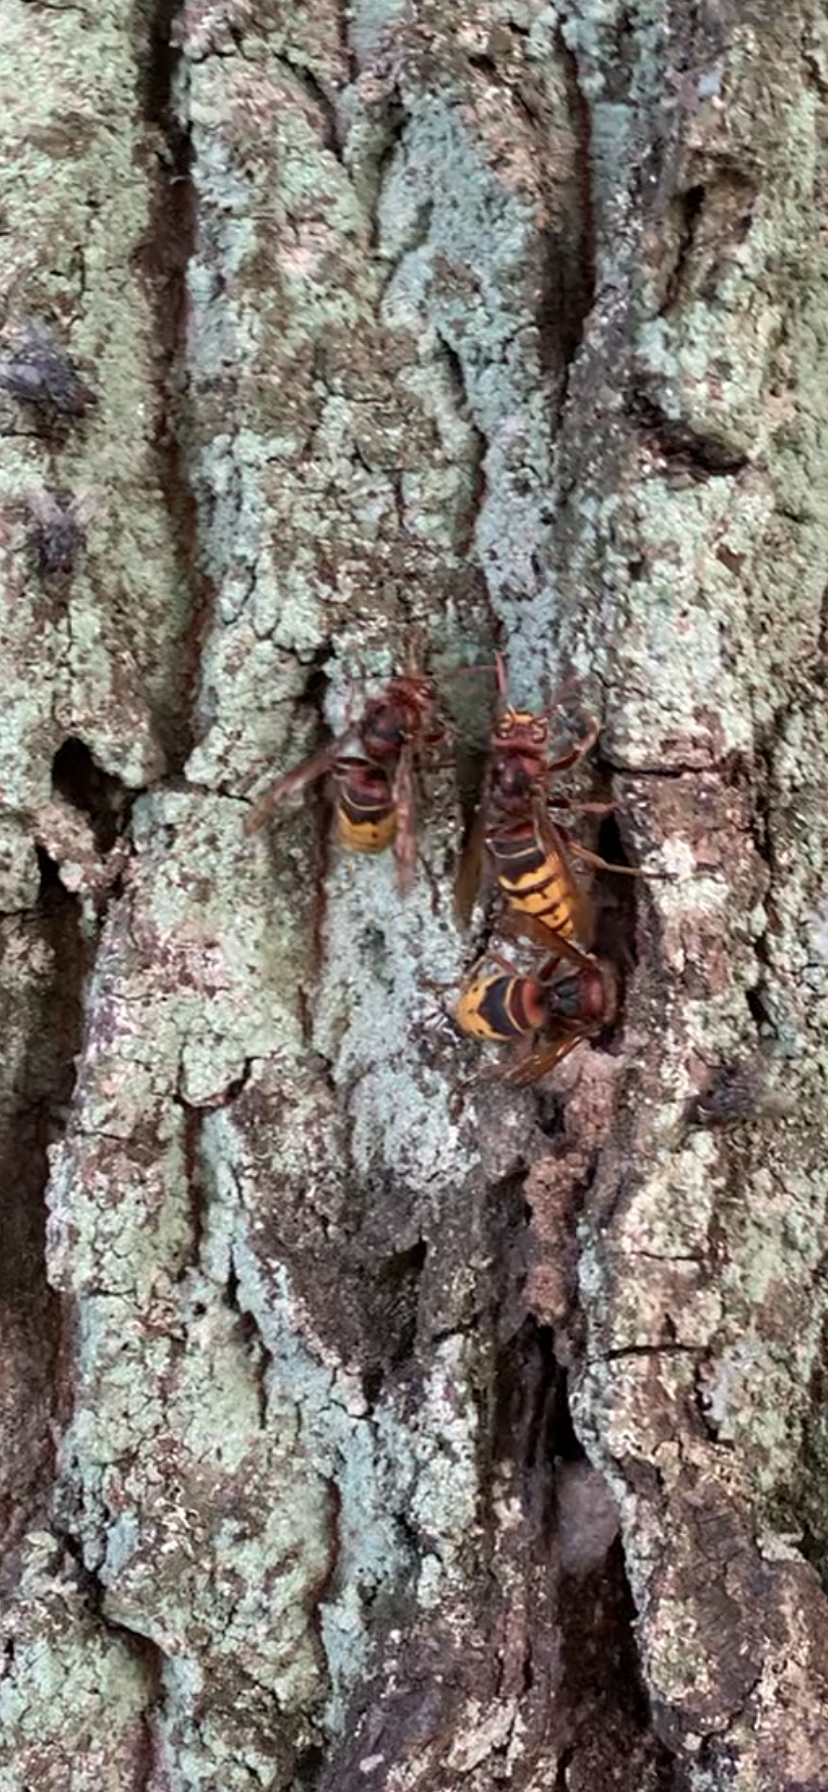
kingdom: Animalia
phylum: Arthropoda
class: Insecta
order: Hymenoptera
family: Vespidae
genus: Vespa
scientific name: Vespa crabro
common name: Hornet
